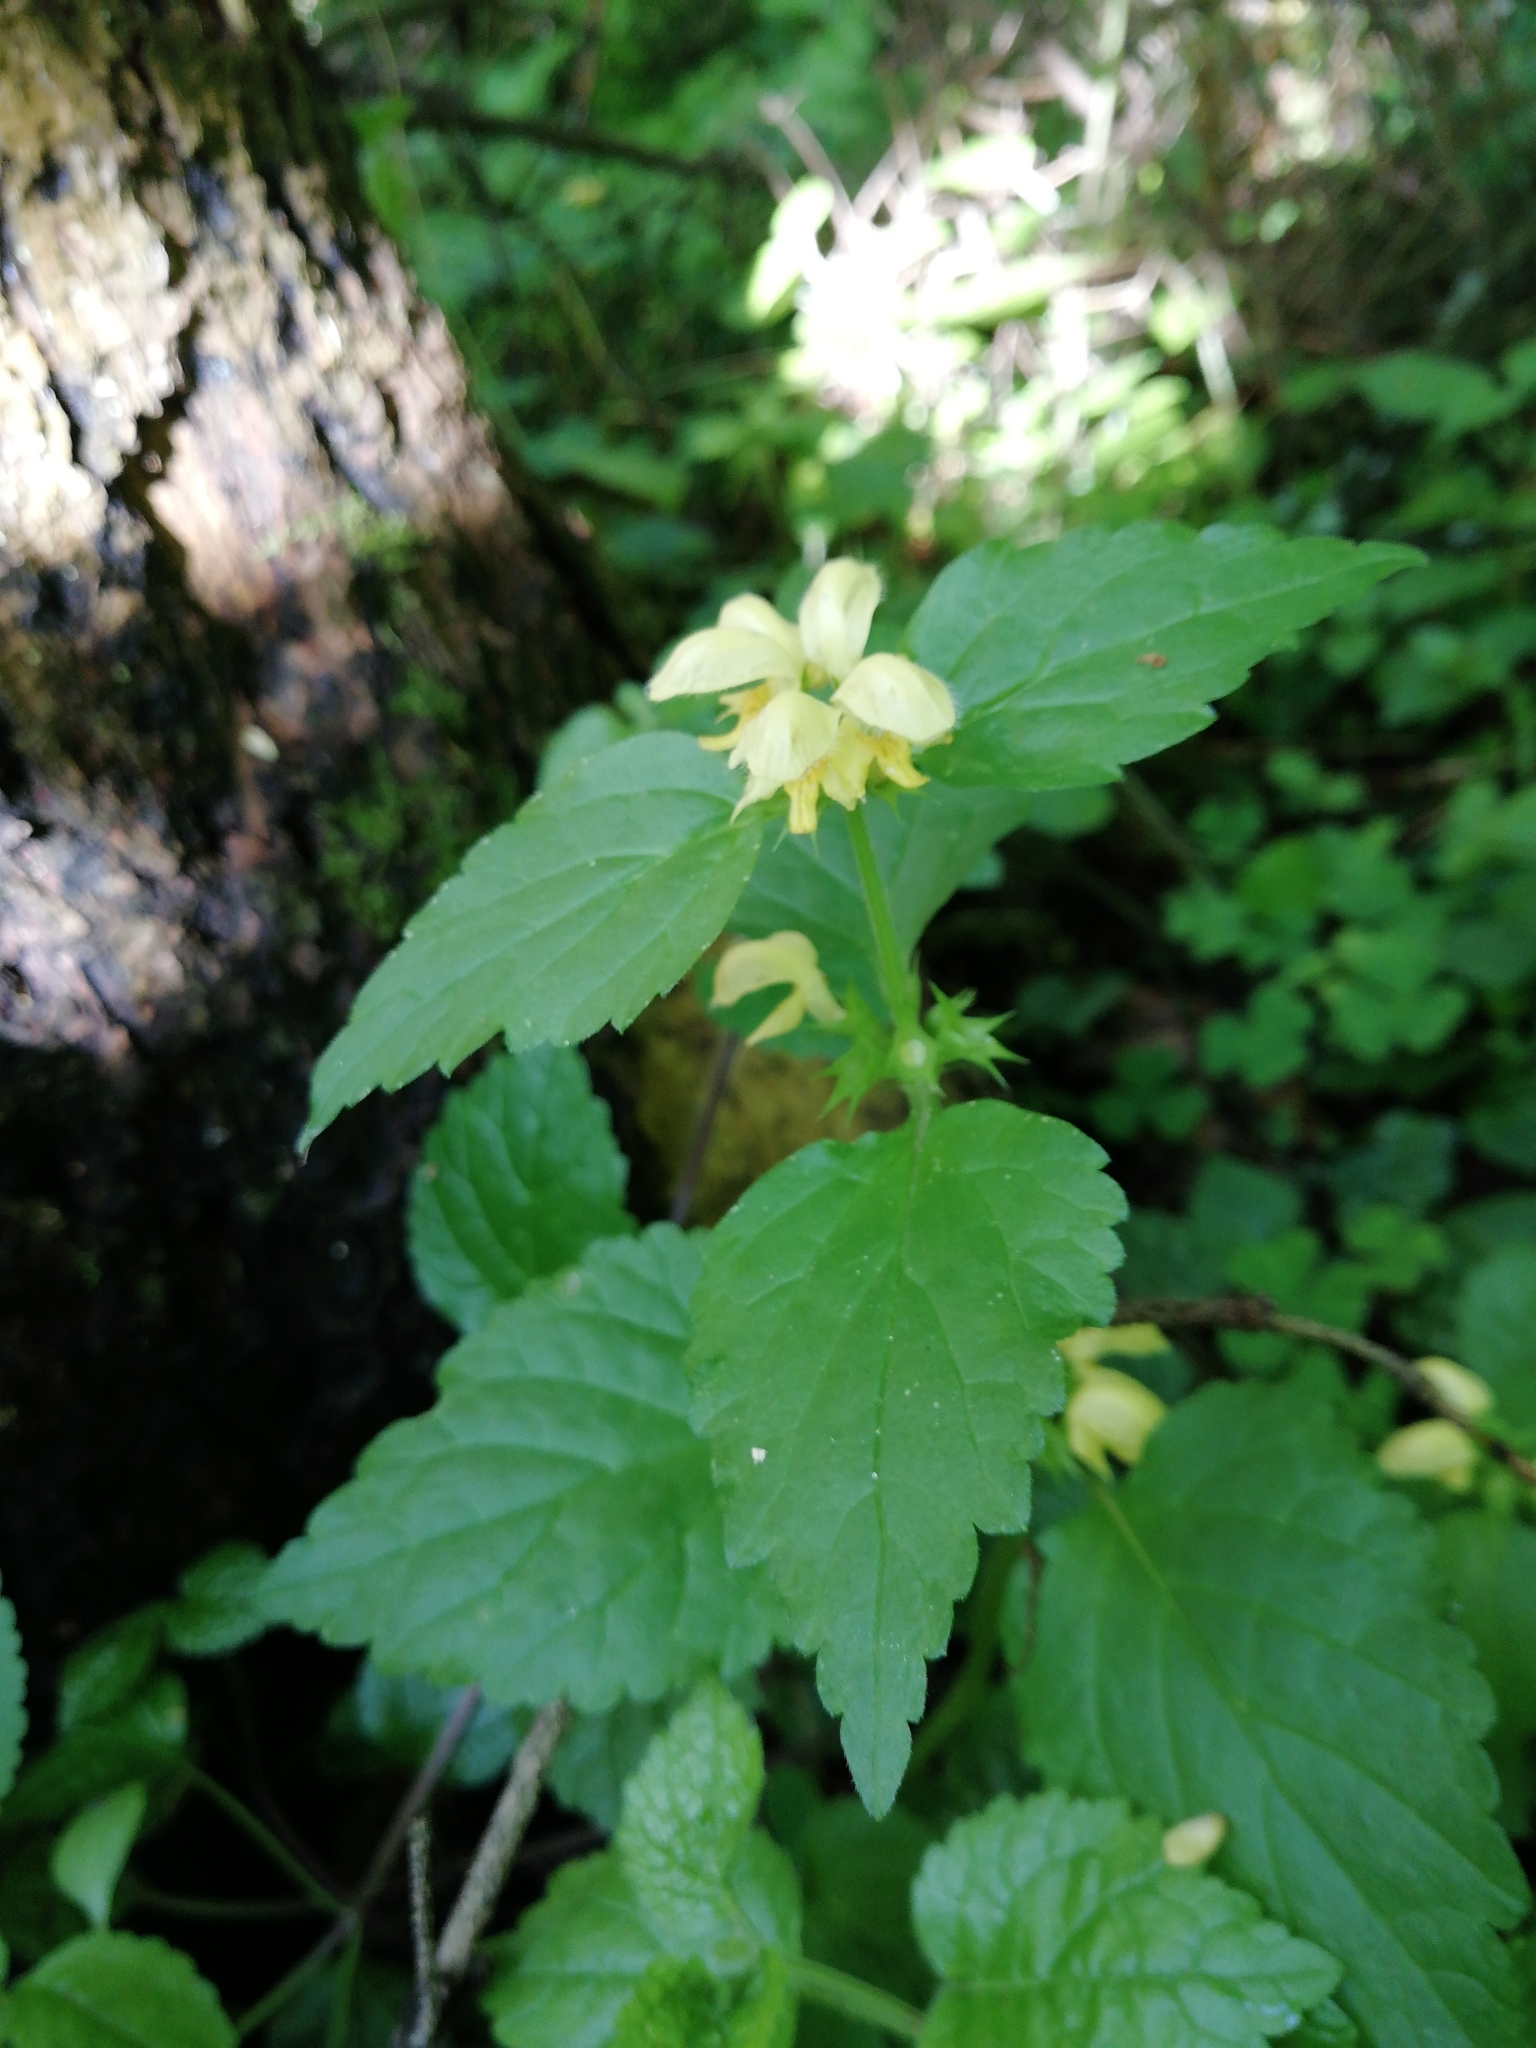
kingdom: Plantae
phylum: Tracheophyta
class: Magnoliopsida
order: Lamiales
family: Lamiaceae
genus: Lamium
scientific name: Lamium galeobdolon
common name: Yellow archangel
